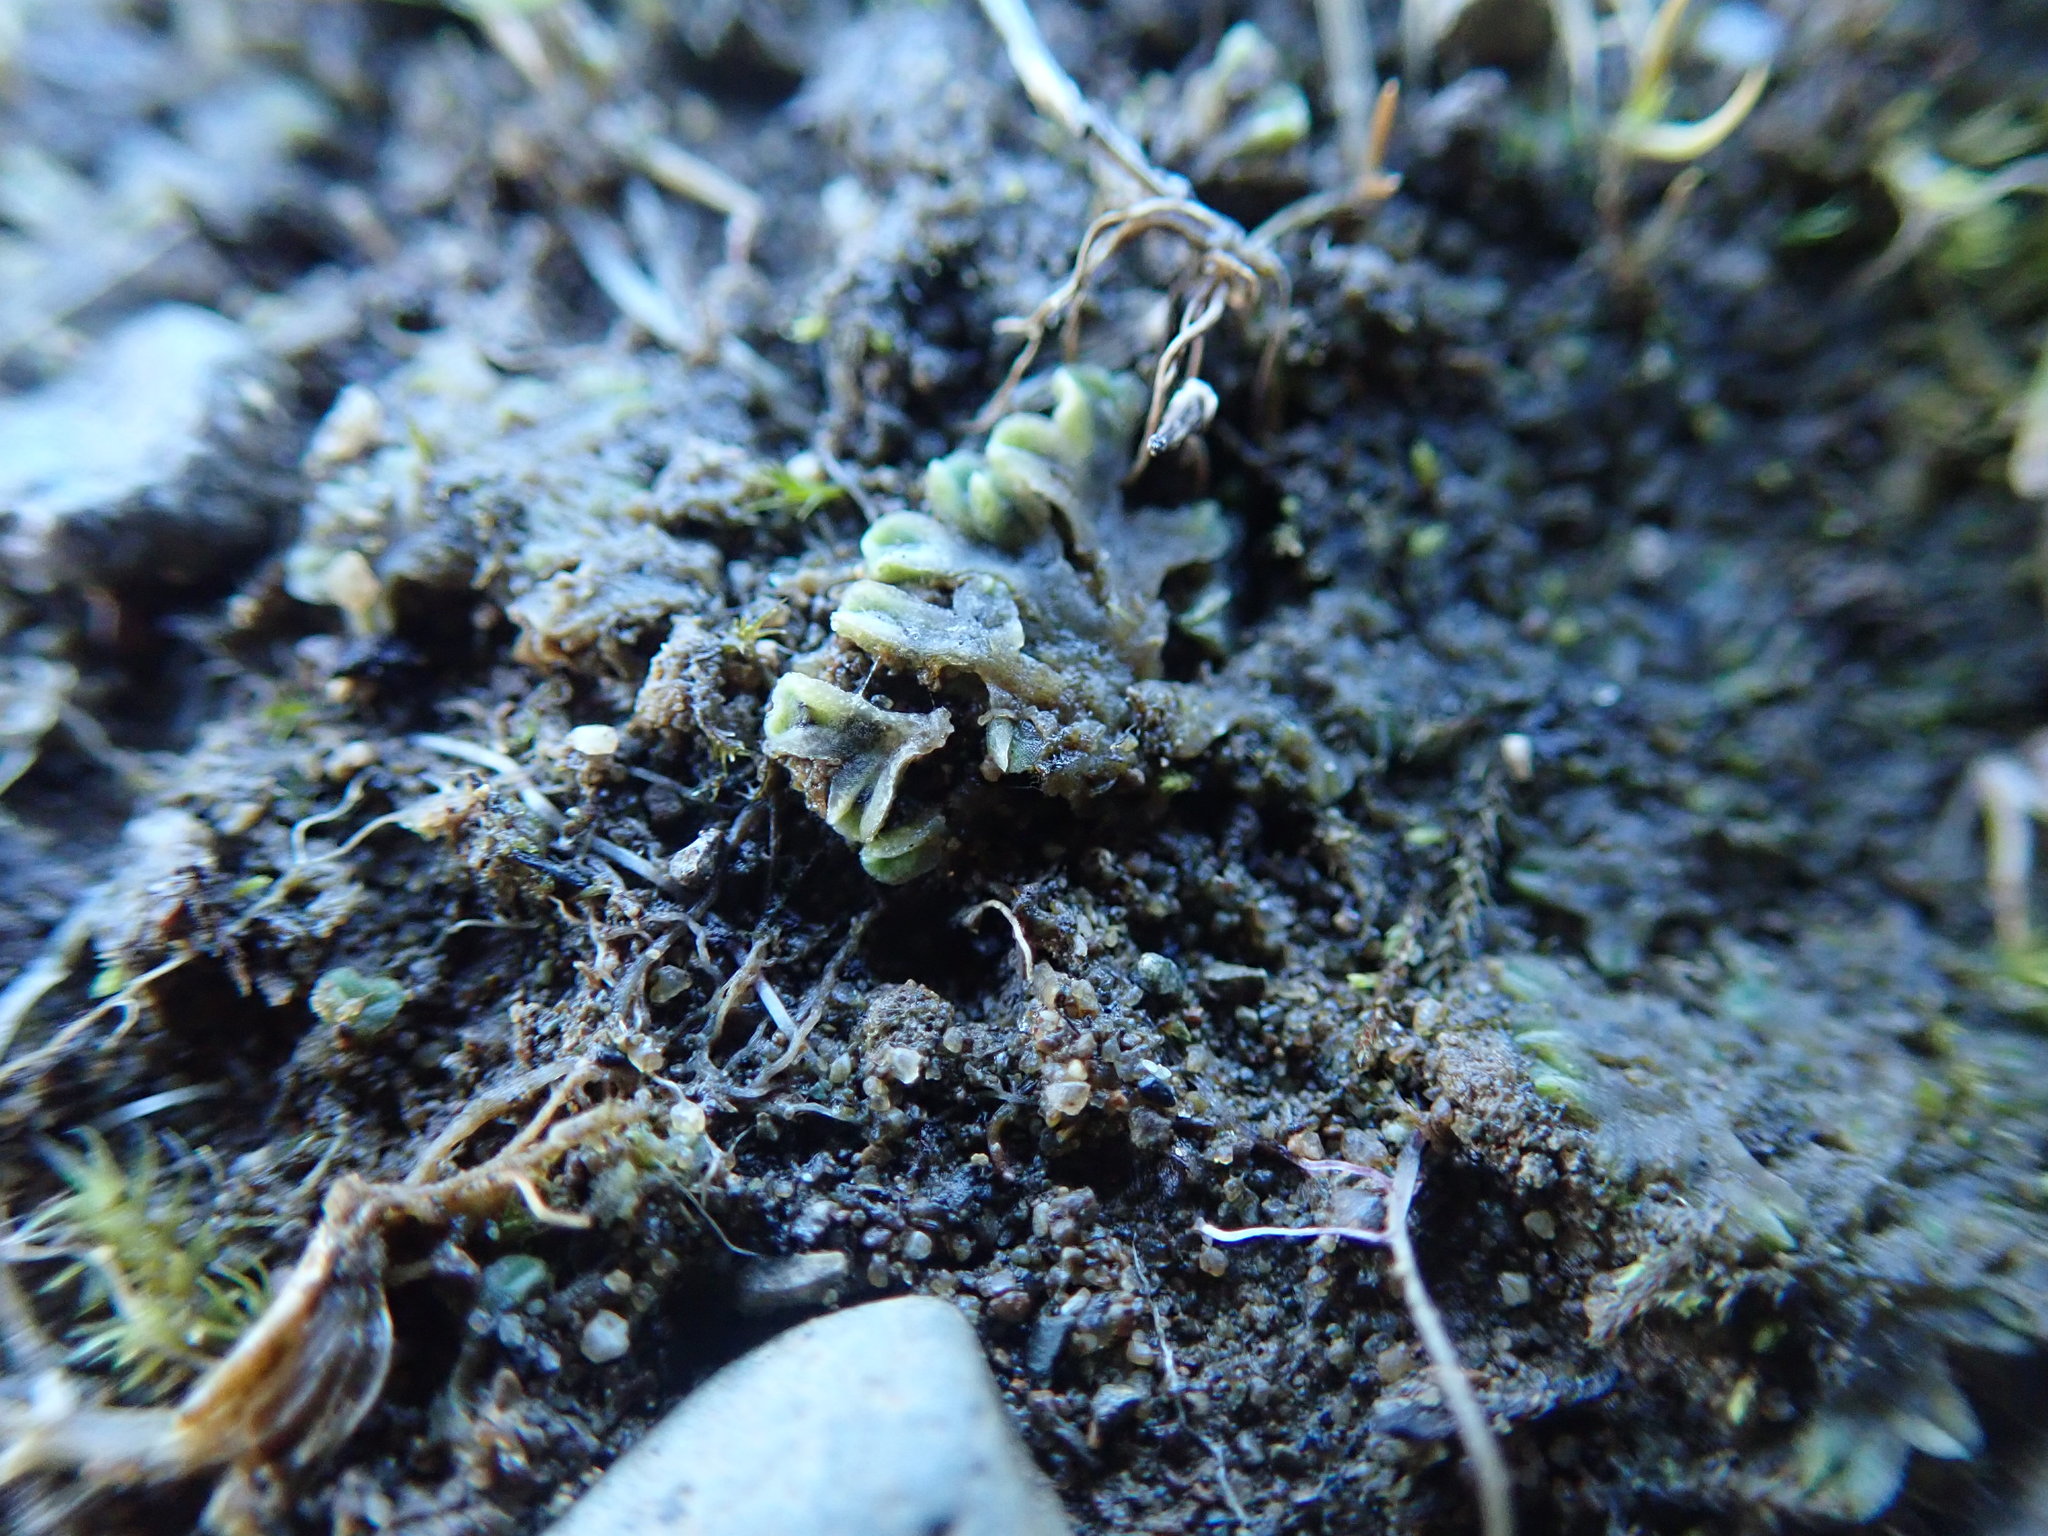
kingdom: Plantae
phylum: Marchantiophyta
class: Marchantiopsida
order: Marchantiales
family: Ricciaceae
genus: Riccia
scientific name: Riccia sorocarpa
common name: Common crystalwort
